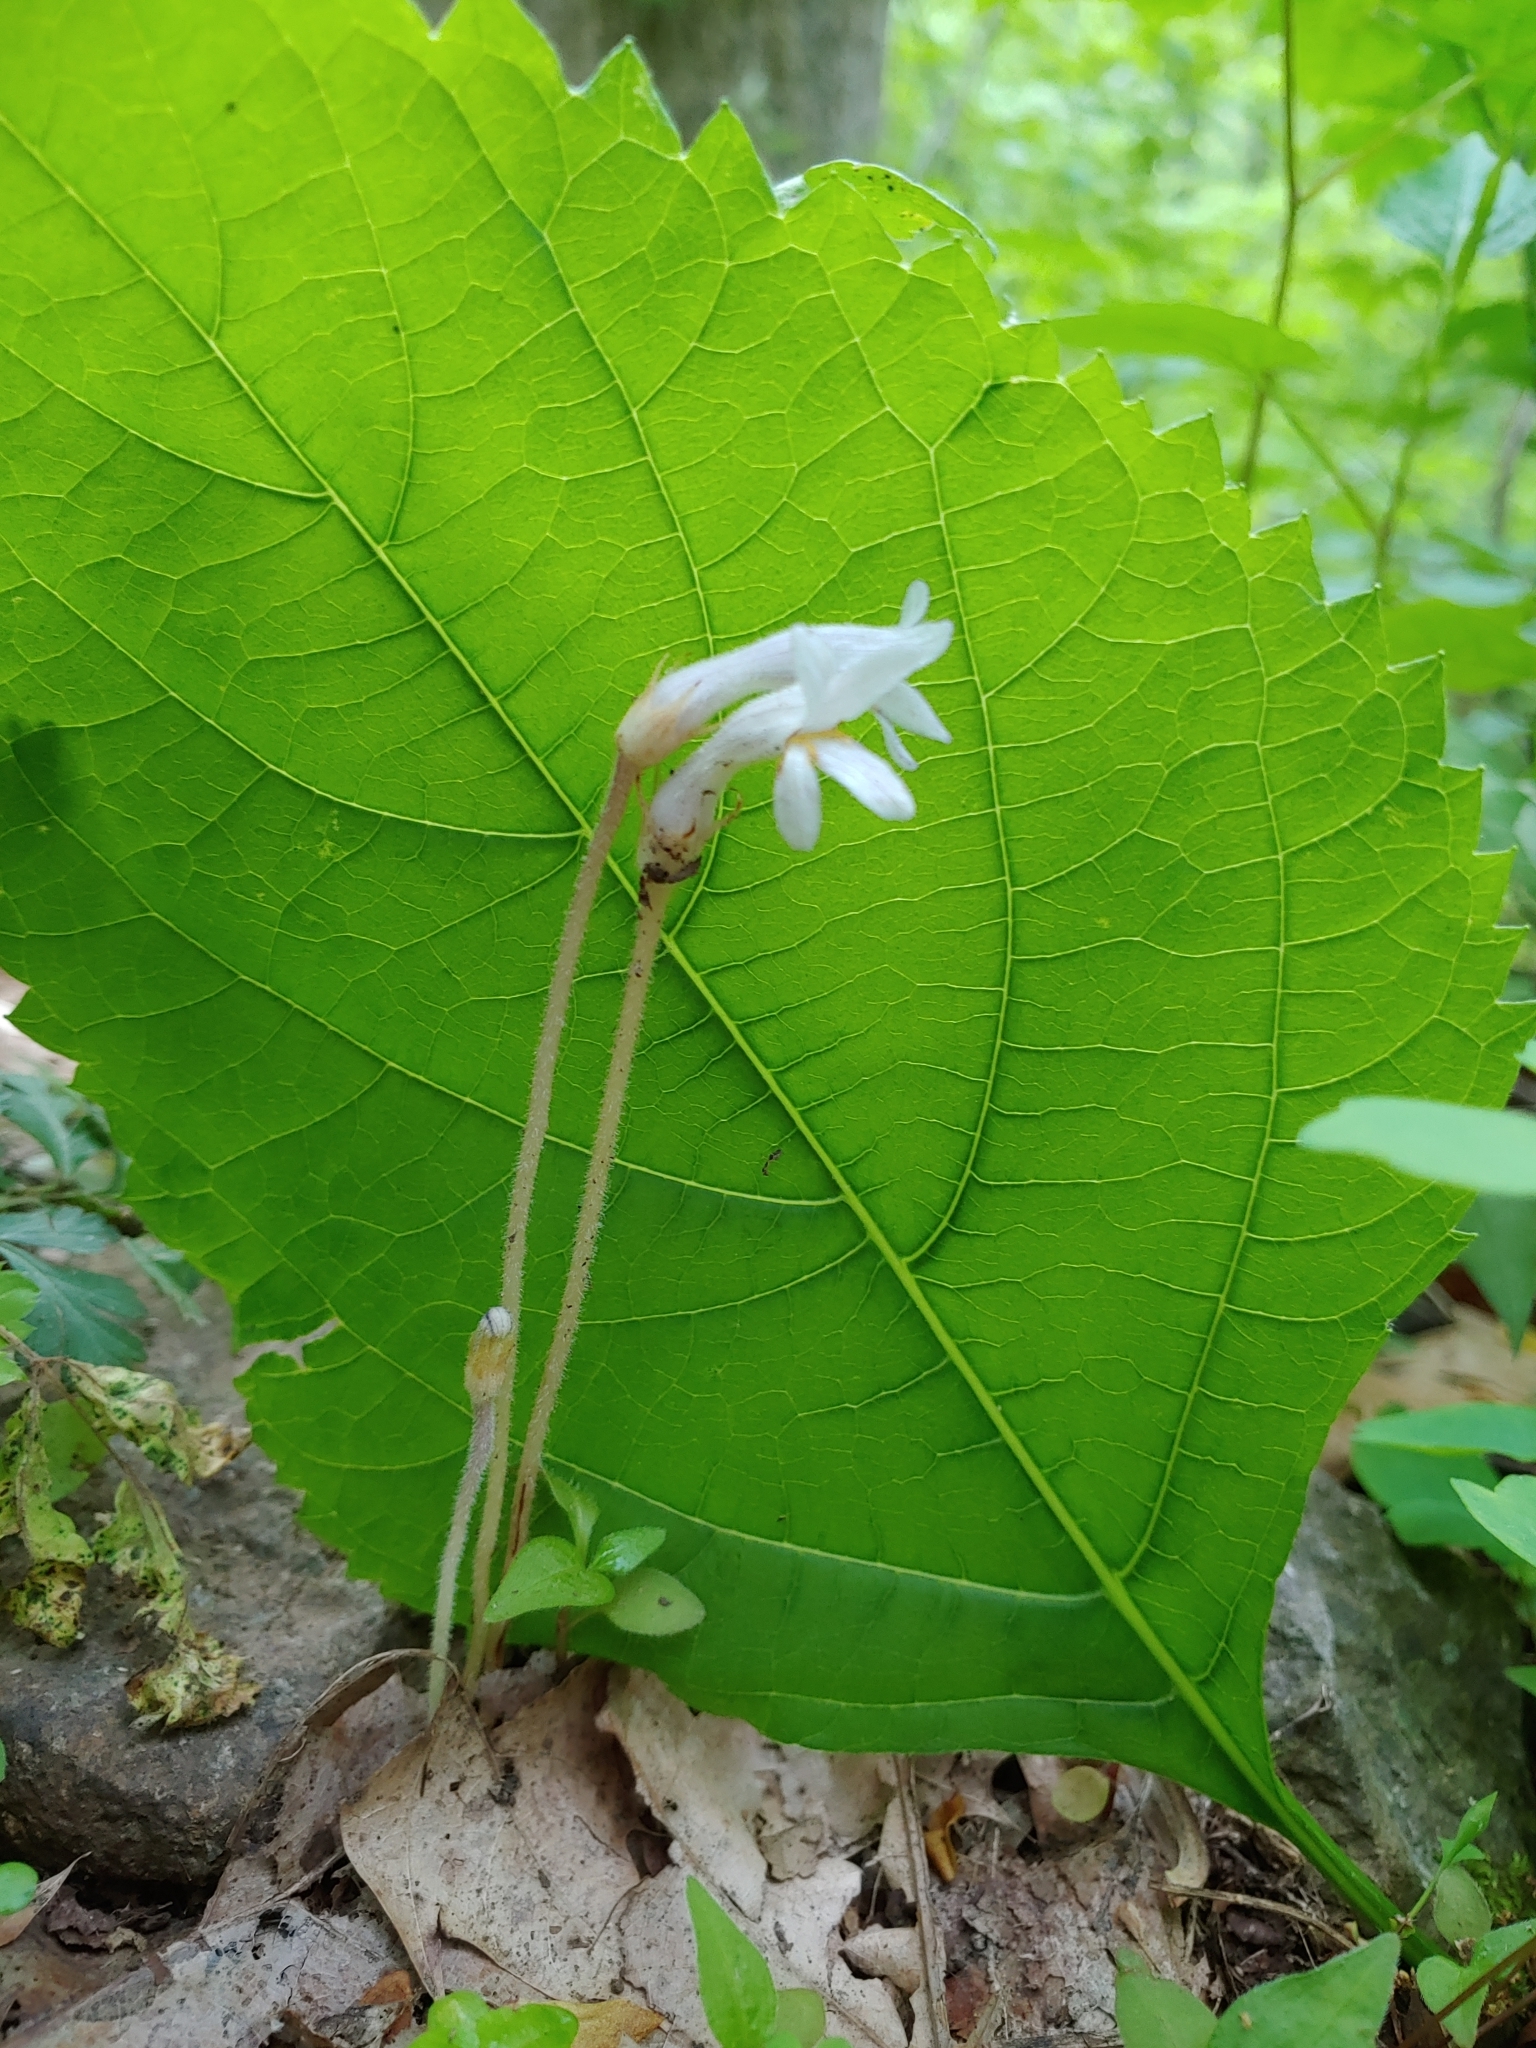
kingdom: Plantae
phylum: Tracheophyta
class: Magnoliopsida
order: Lamiales
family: Orobanchaceae
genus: Aphyllon
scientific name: Aphyllon uniflorum
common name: One-flowered broomrape
